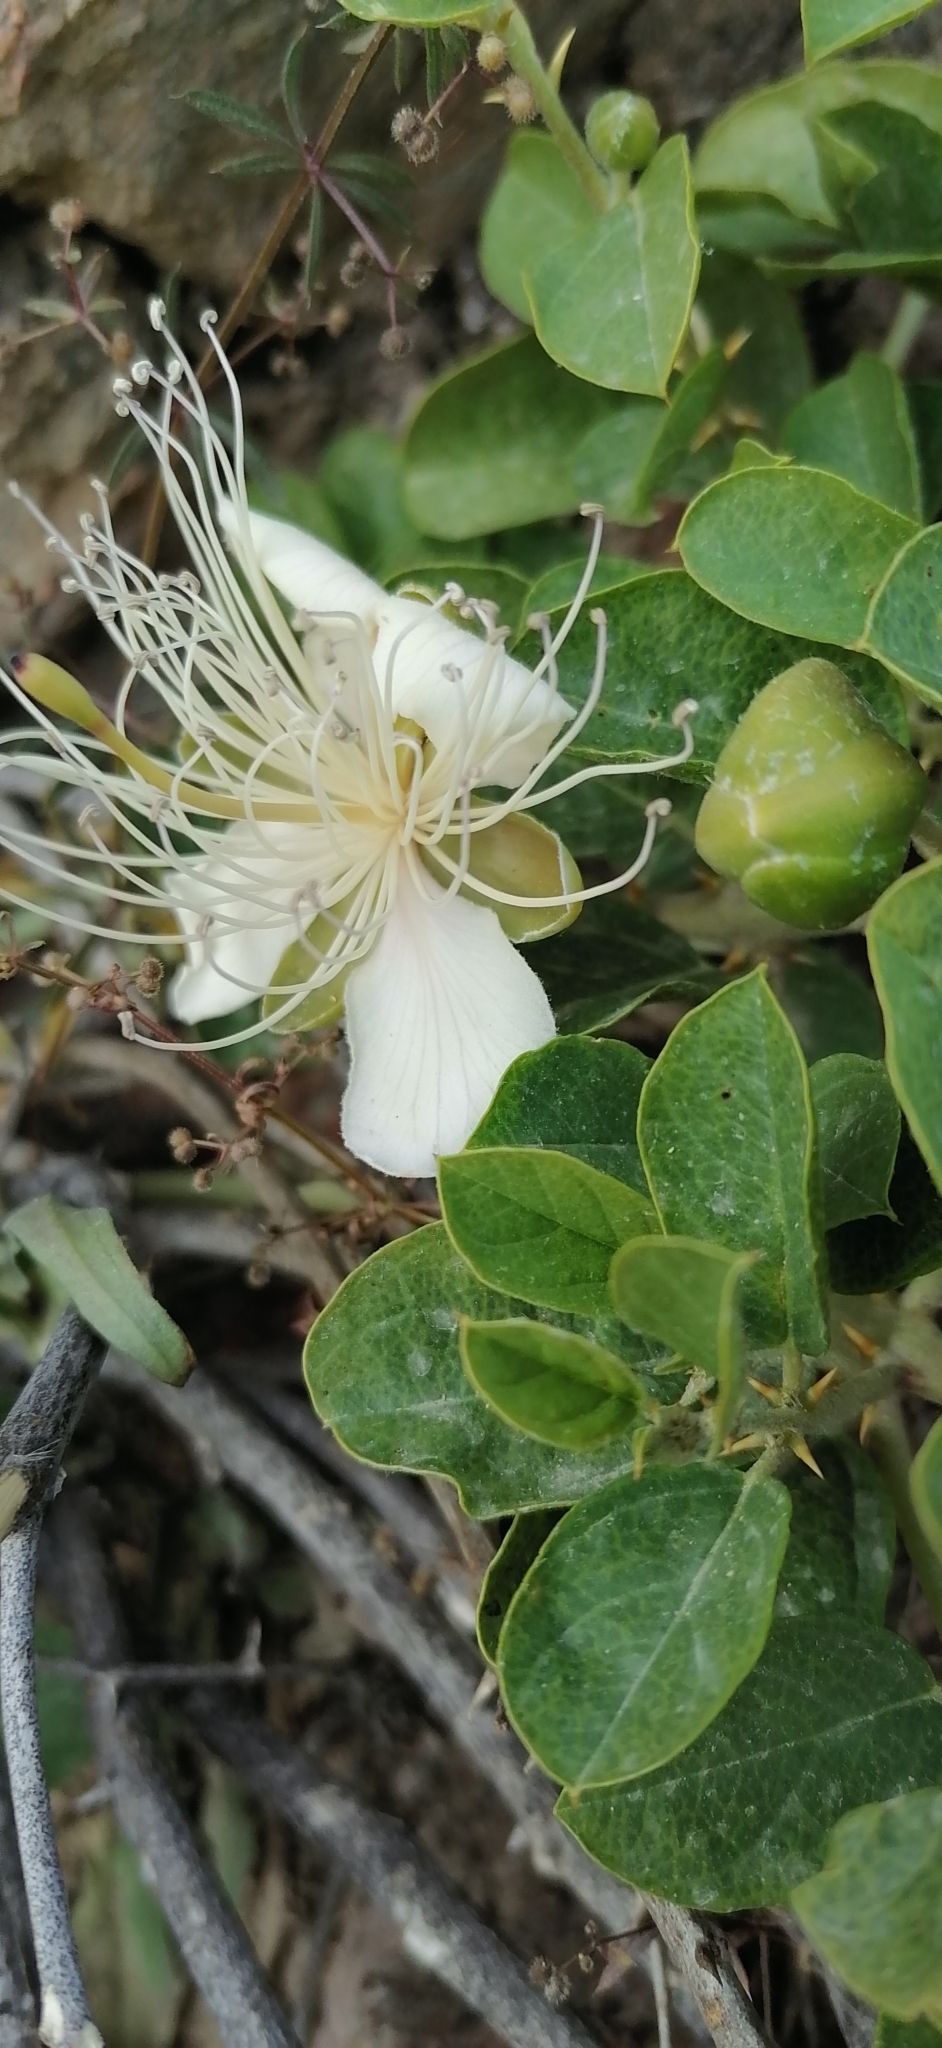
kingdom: Plantae
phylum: Tracheophyta
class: Magnoliopsida
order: Brassicales
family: Capparaceae
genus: Capparis
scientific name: Capparis spinosa
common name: Caper
